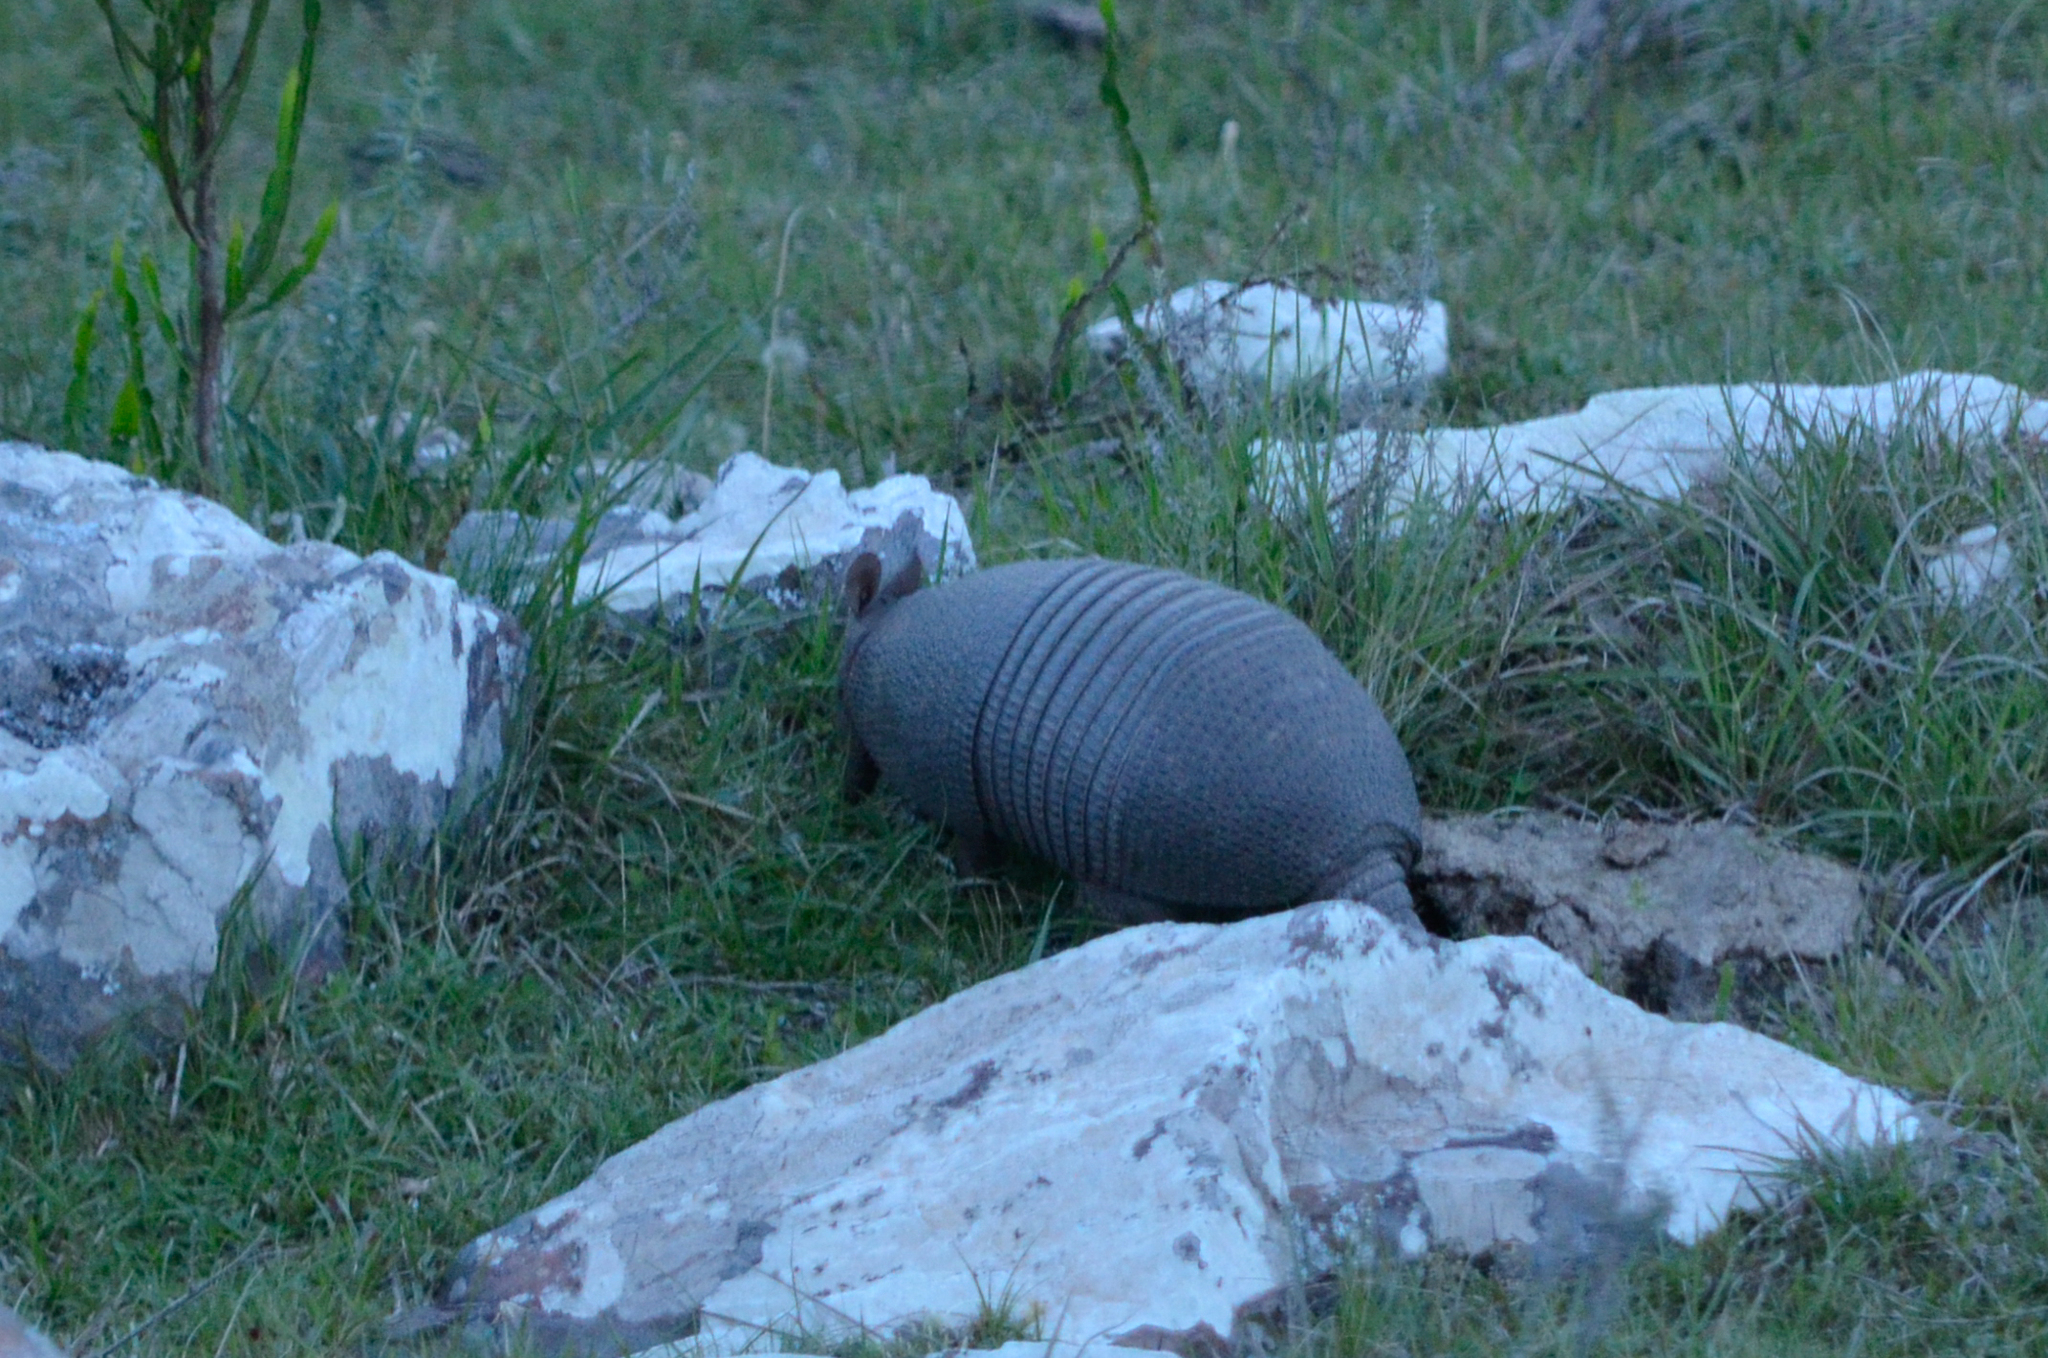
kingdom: Animalia
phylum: Chordata
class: Mammalia
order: Cingulata
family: Dasypodidae
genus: Dasypus
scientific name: Dasypus septemcinctus
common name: Seven-banded armadillo
